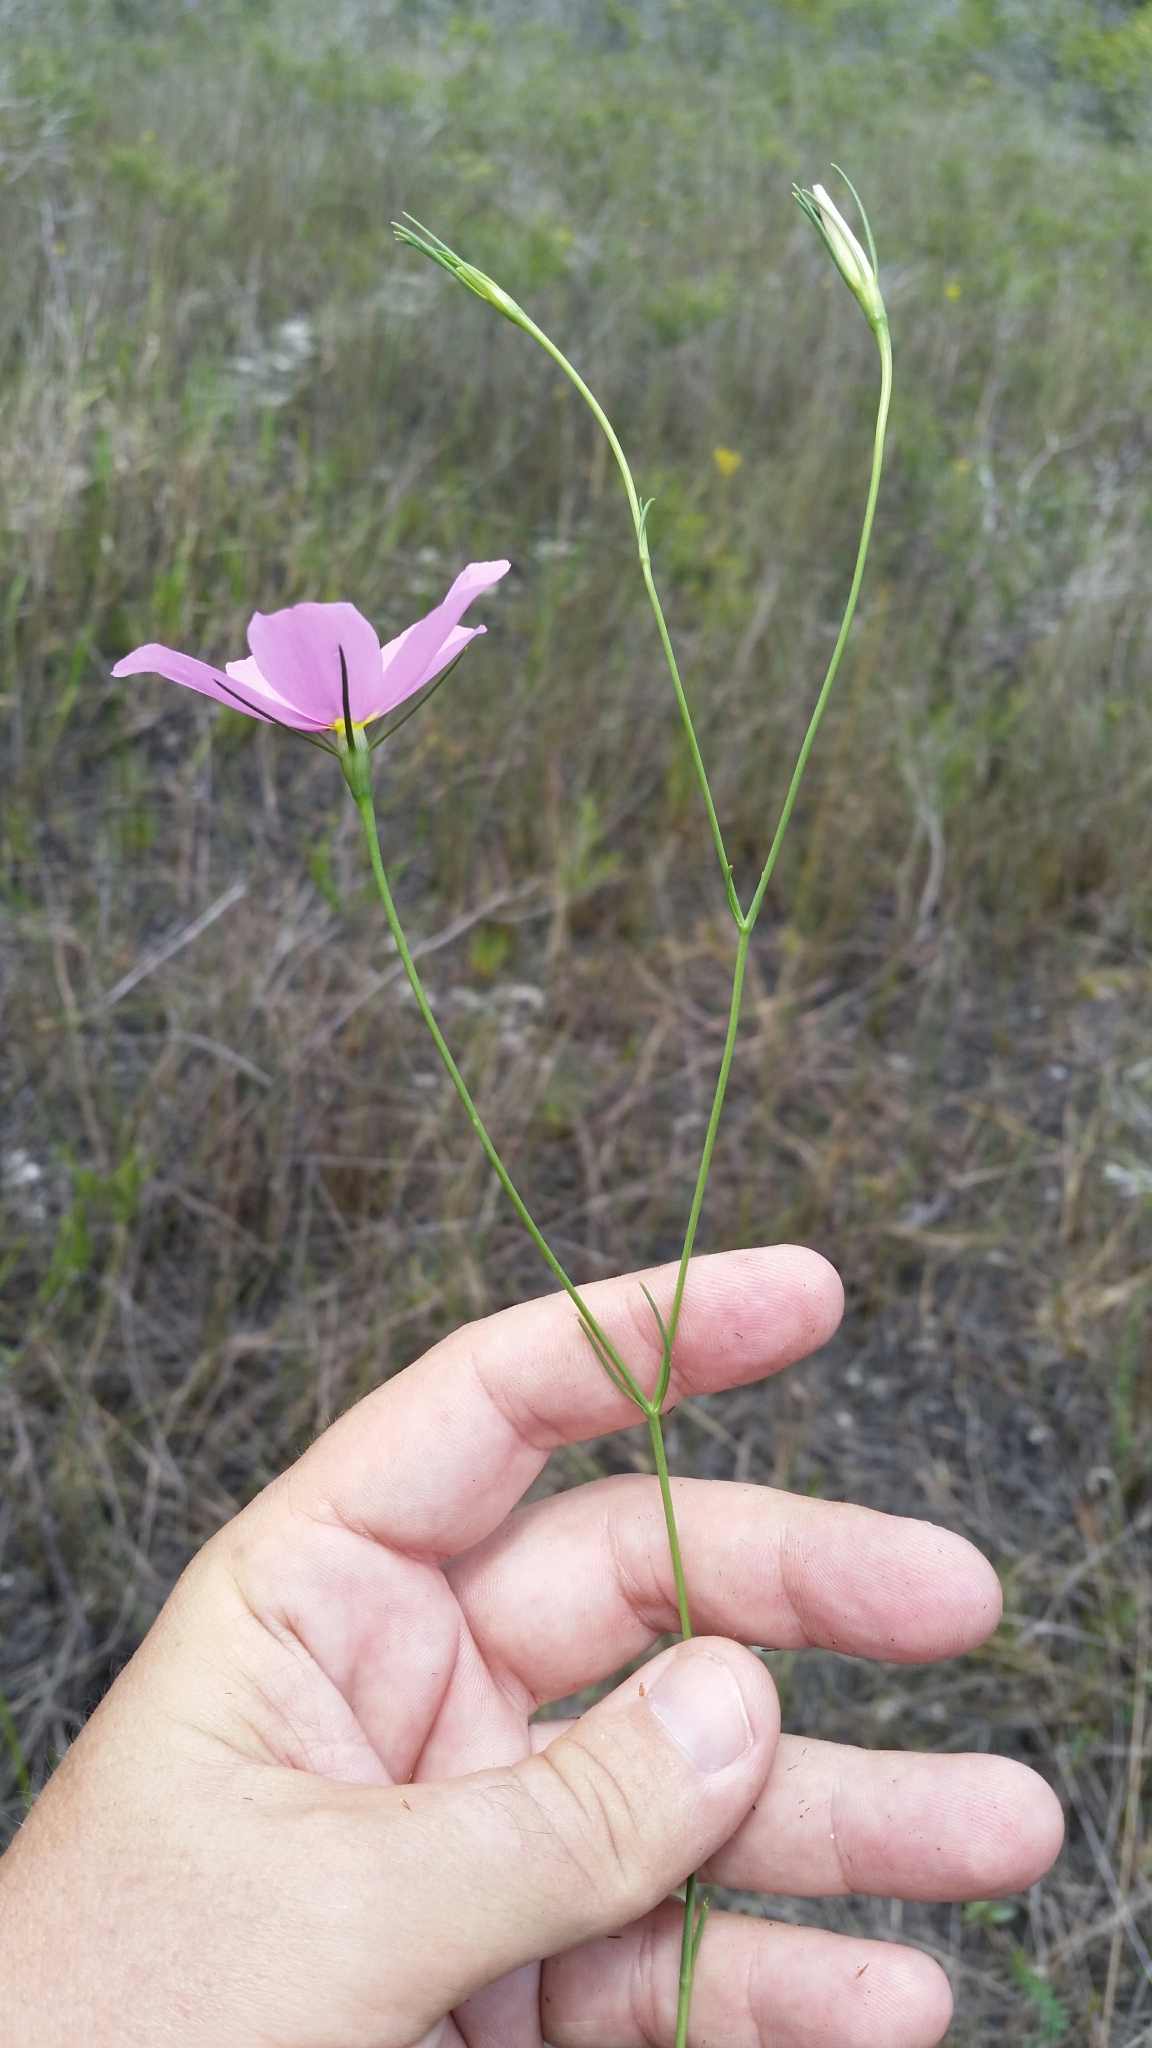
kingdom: Plantae
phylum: Tracheophyta
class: Magnoliopsida
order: Gentianales
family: Gentianaceae
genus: Sabatia
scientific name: Sabatia grandiflora
